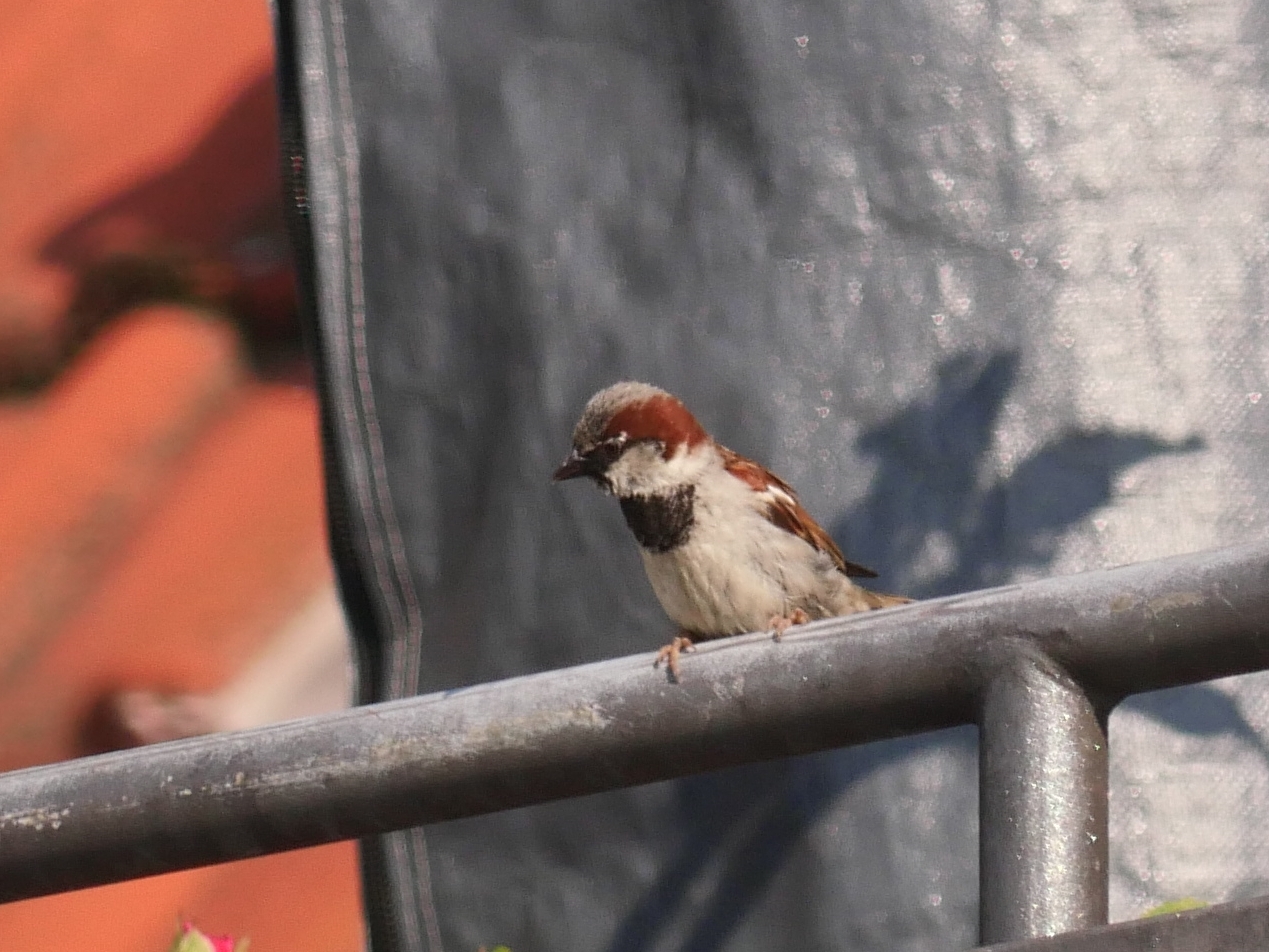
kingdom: Animalia
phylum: Chordata
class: Aves
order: Passeriformes
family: Passeridae
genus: Passer
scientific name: Passer domesticus
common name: House sparrow
